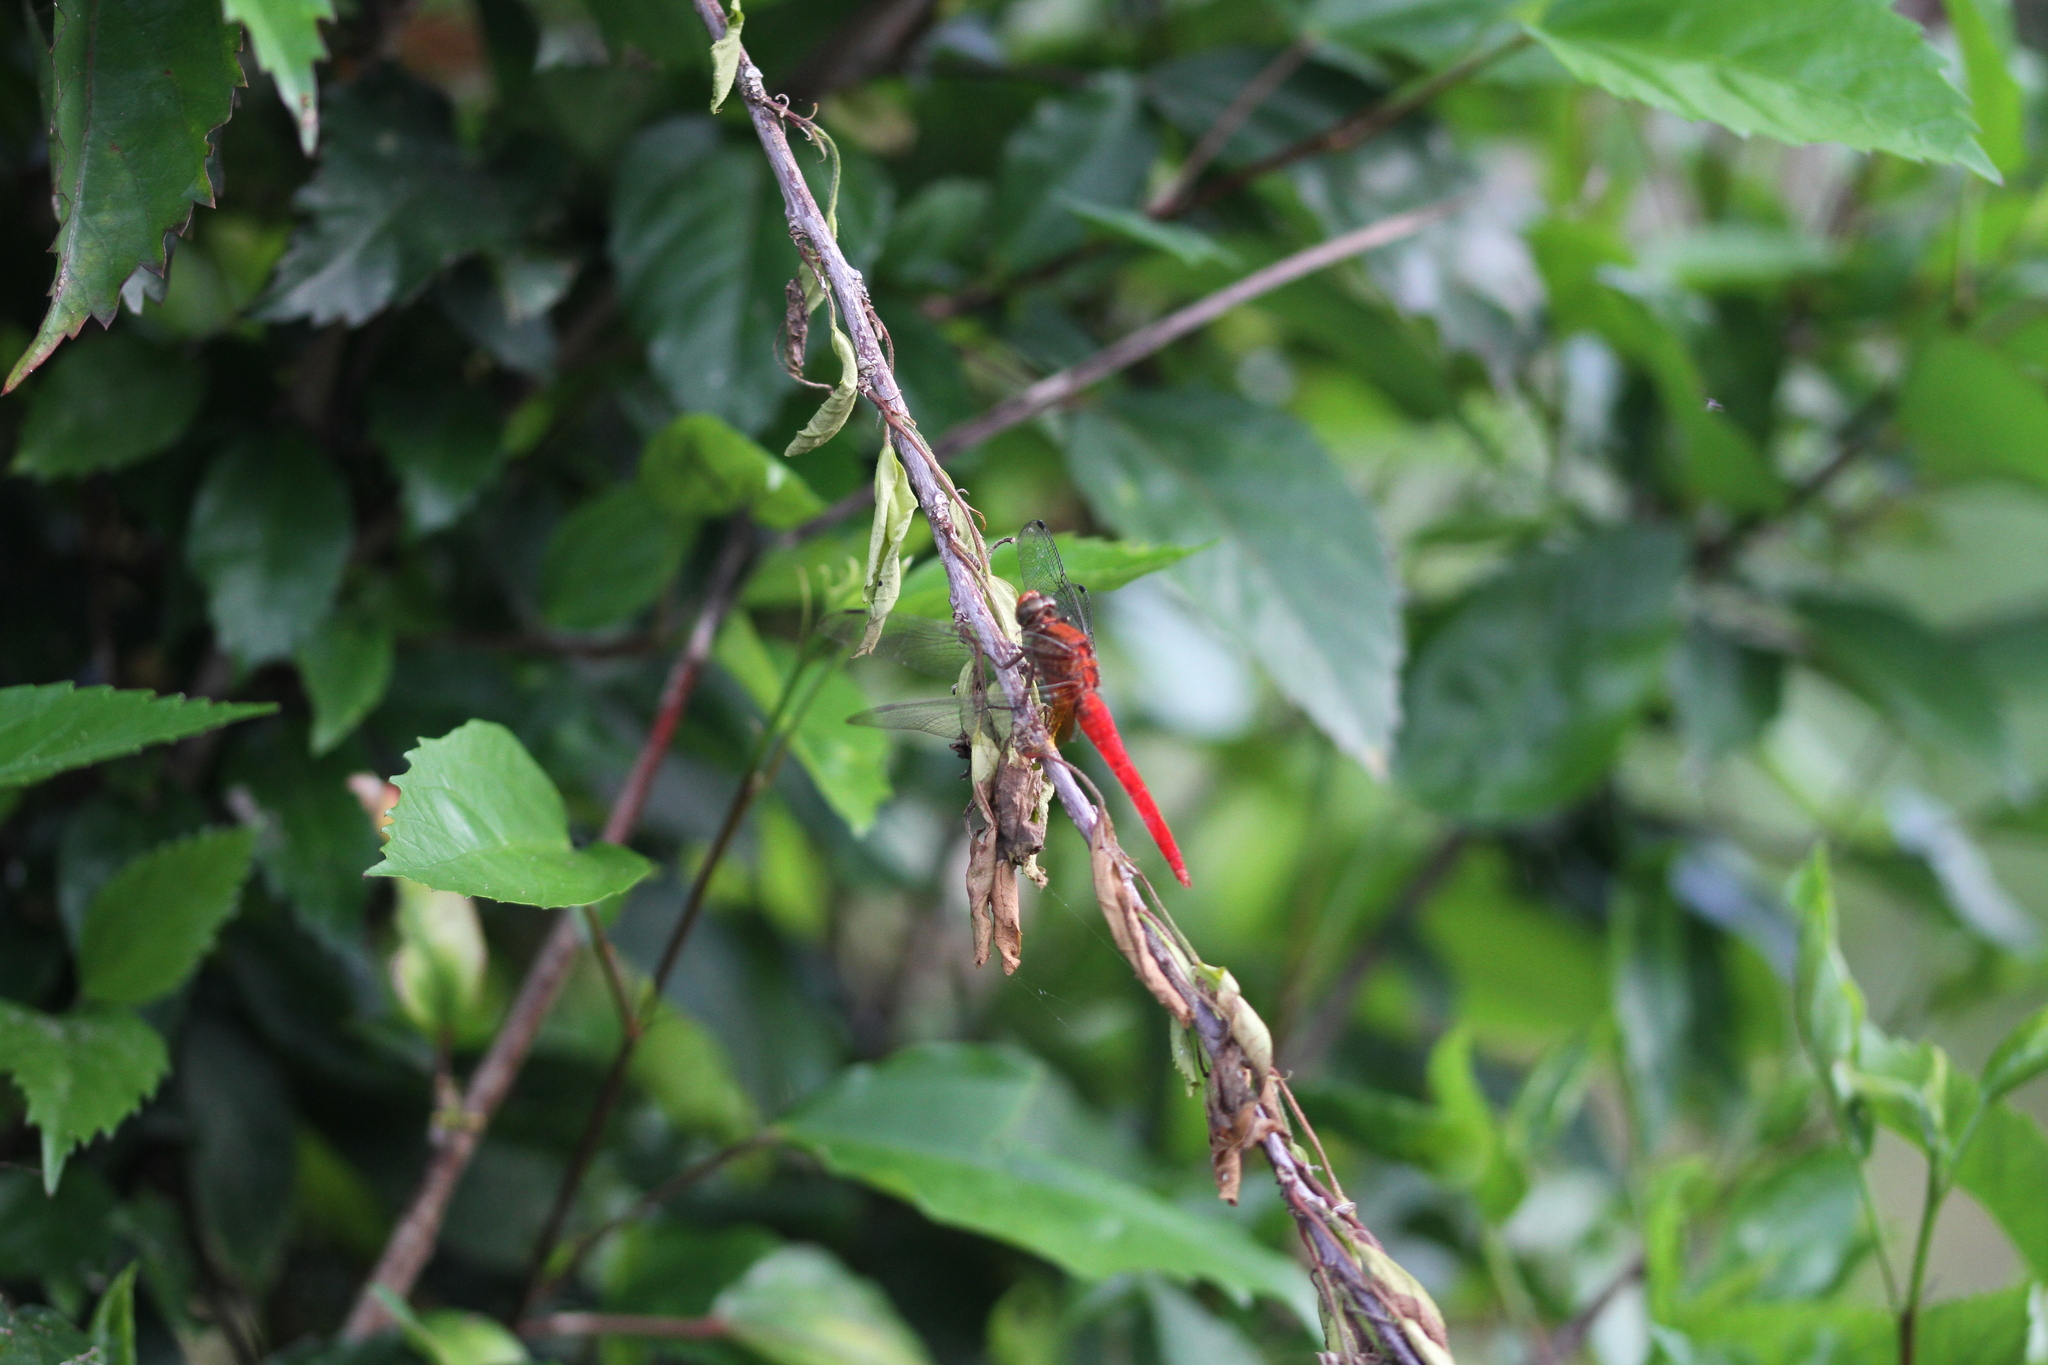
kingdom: Animalia
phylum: Arthropoda
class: Insecta
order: Odonata
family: Libellulidae
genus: Orthetrum
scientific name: Orthetrum testaceum
